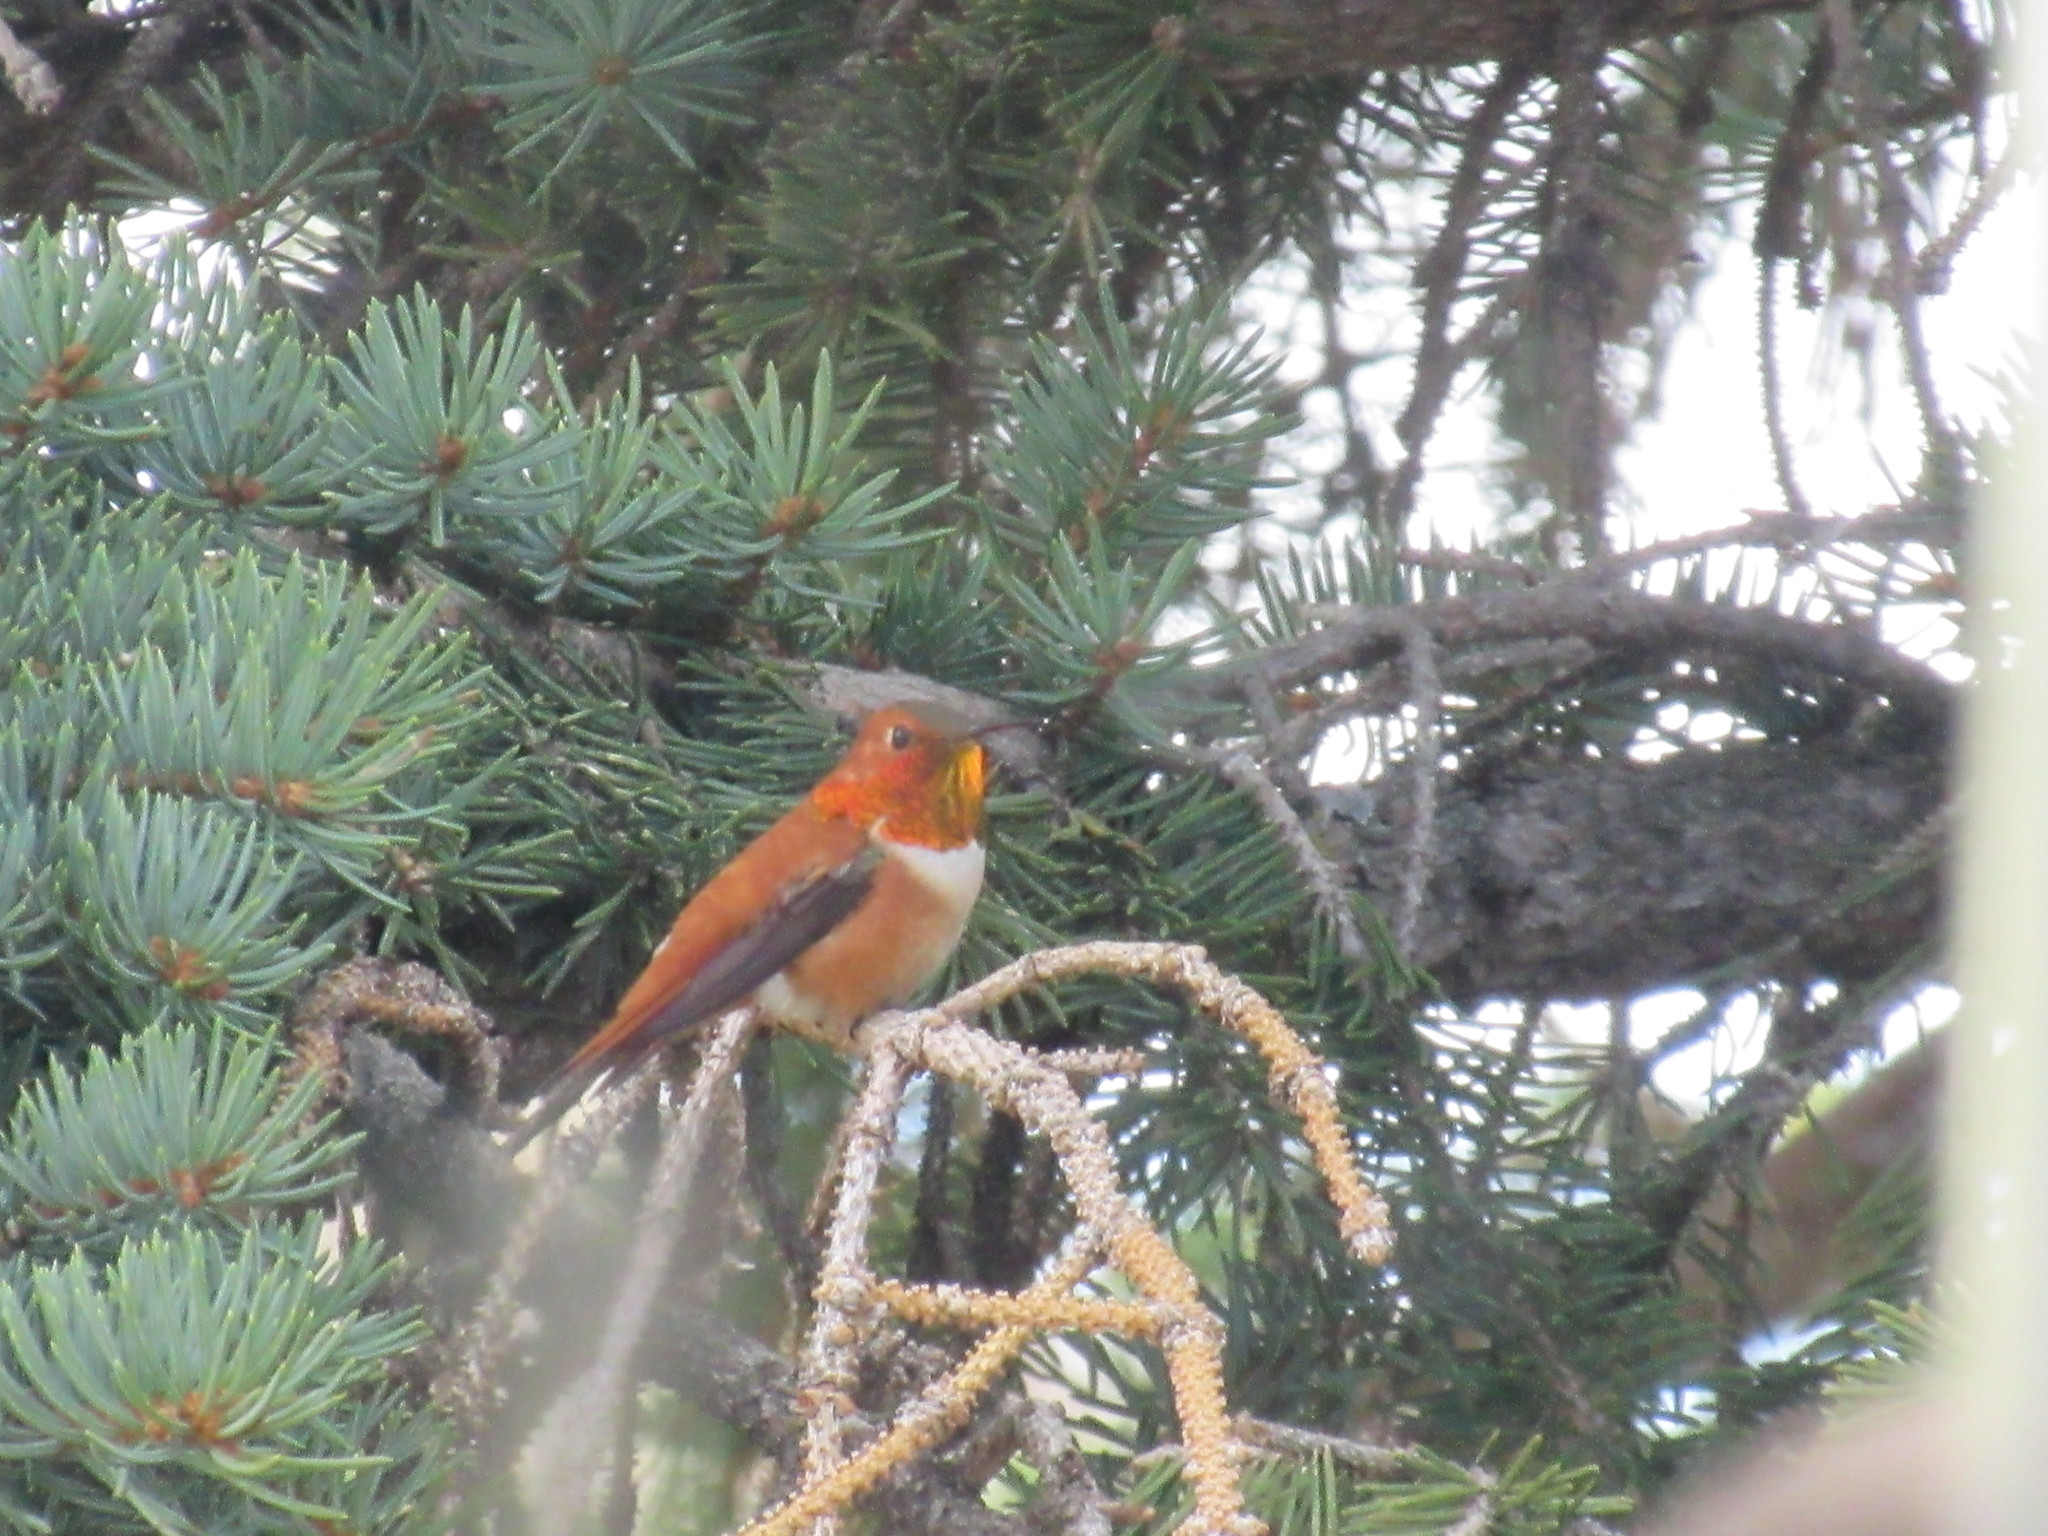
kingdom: Animalia
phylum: Chordata
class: Aves
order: Apodiformes
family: Trochilidae
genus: Selasphorus
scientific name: Selasphorus rufus
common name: Rufous hummingbird
